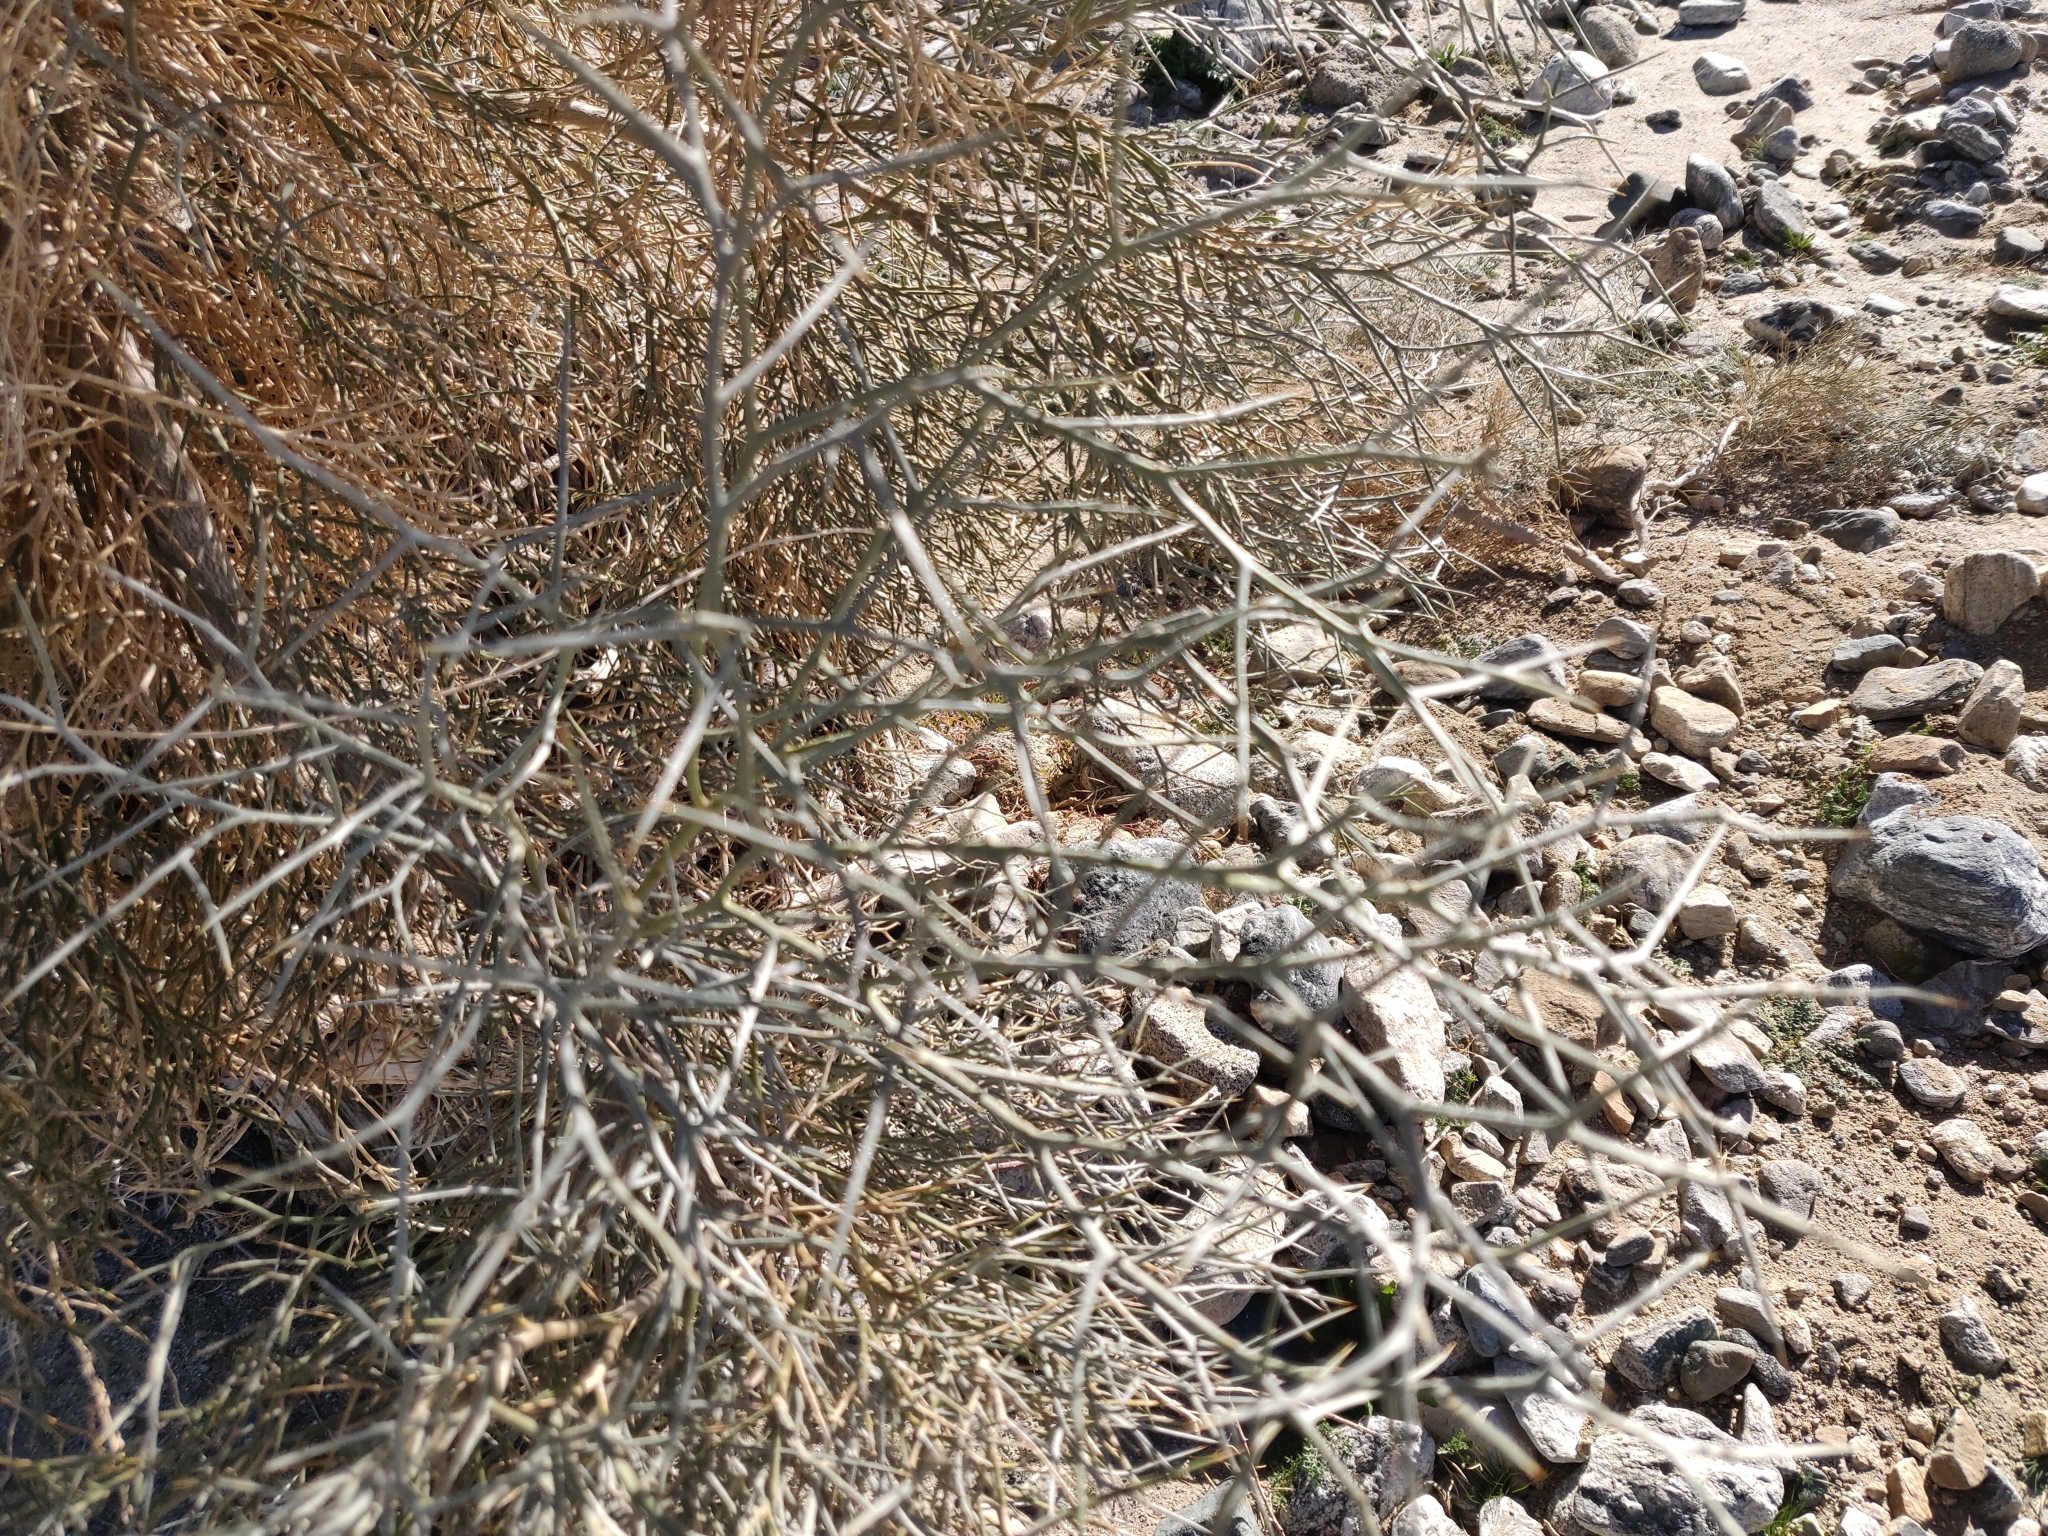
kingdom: Plantae
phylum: Tracheophyta
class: Magnoliopsida
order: Fabales
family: Fabaceae
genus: Psorothamnus
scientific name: Psorothamnus spinosus
